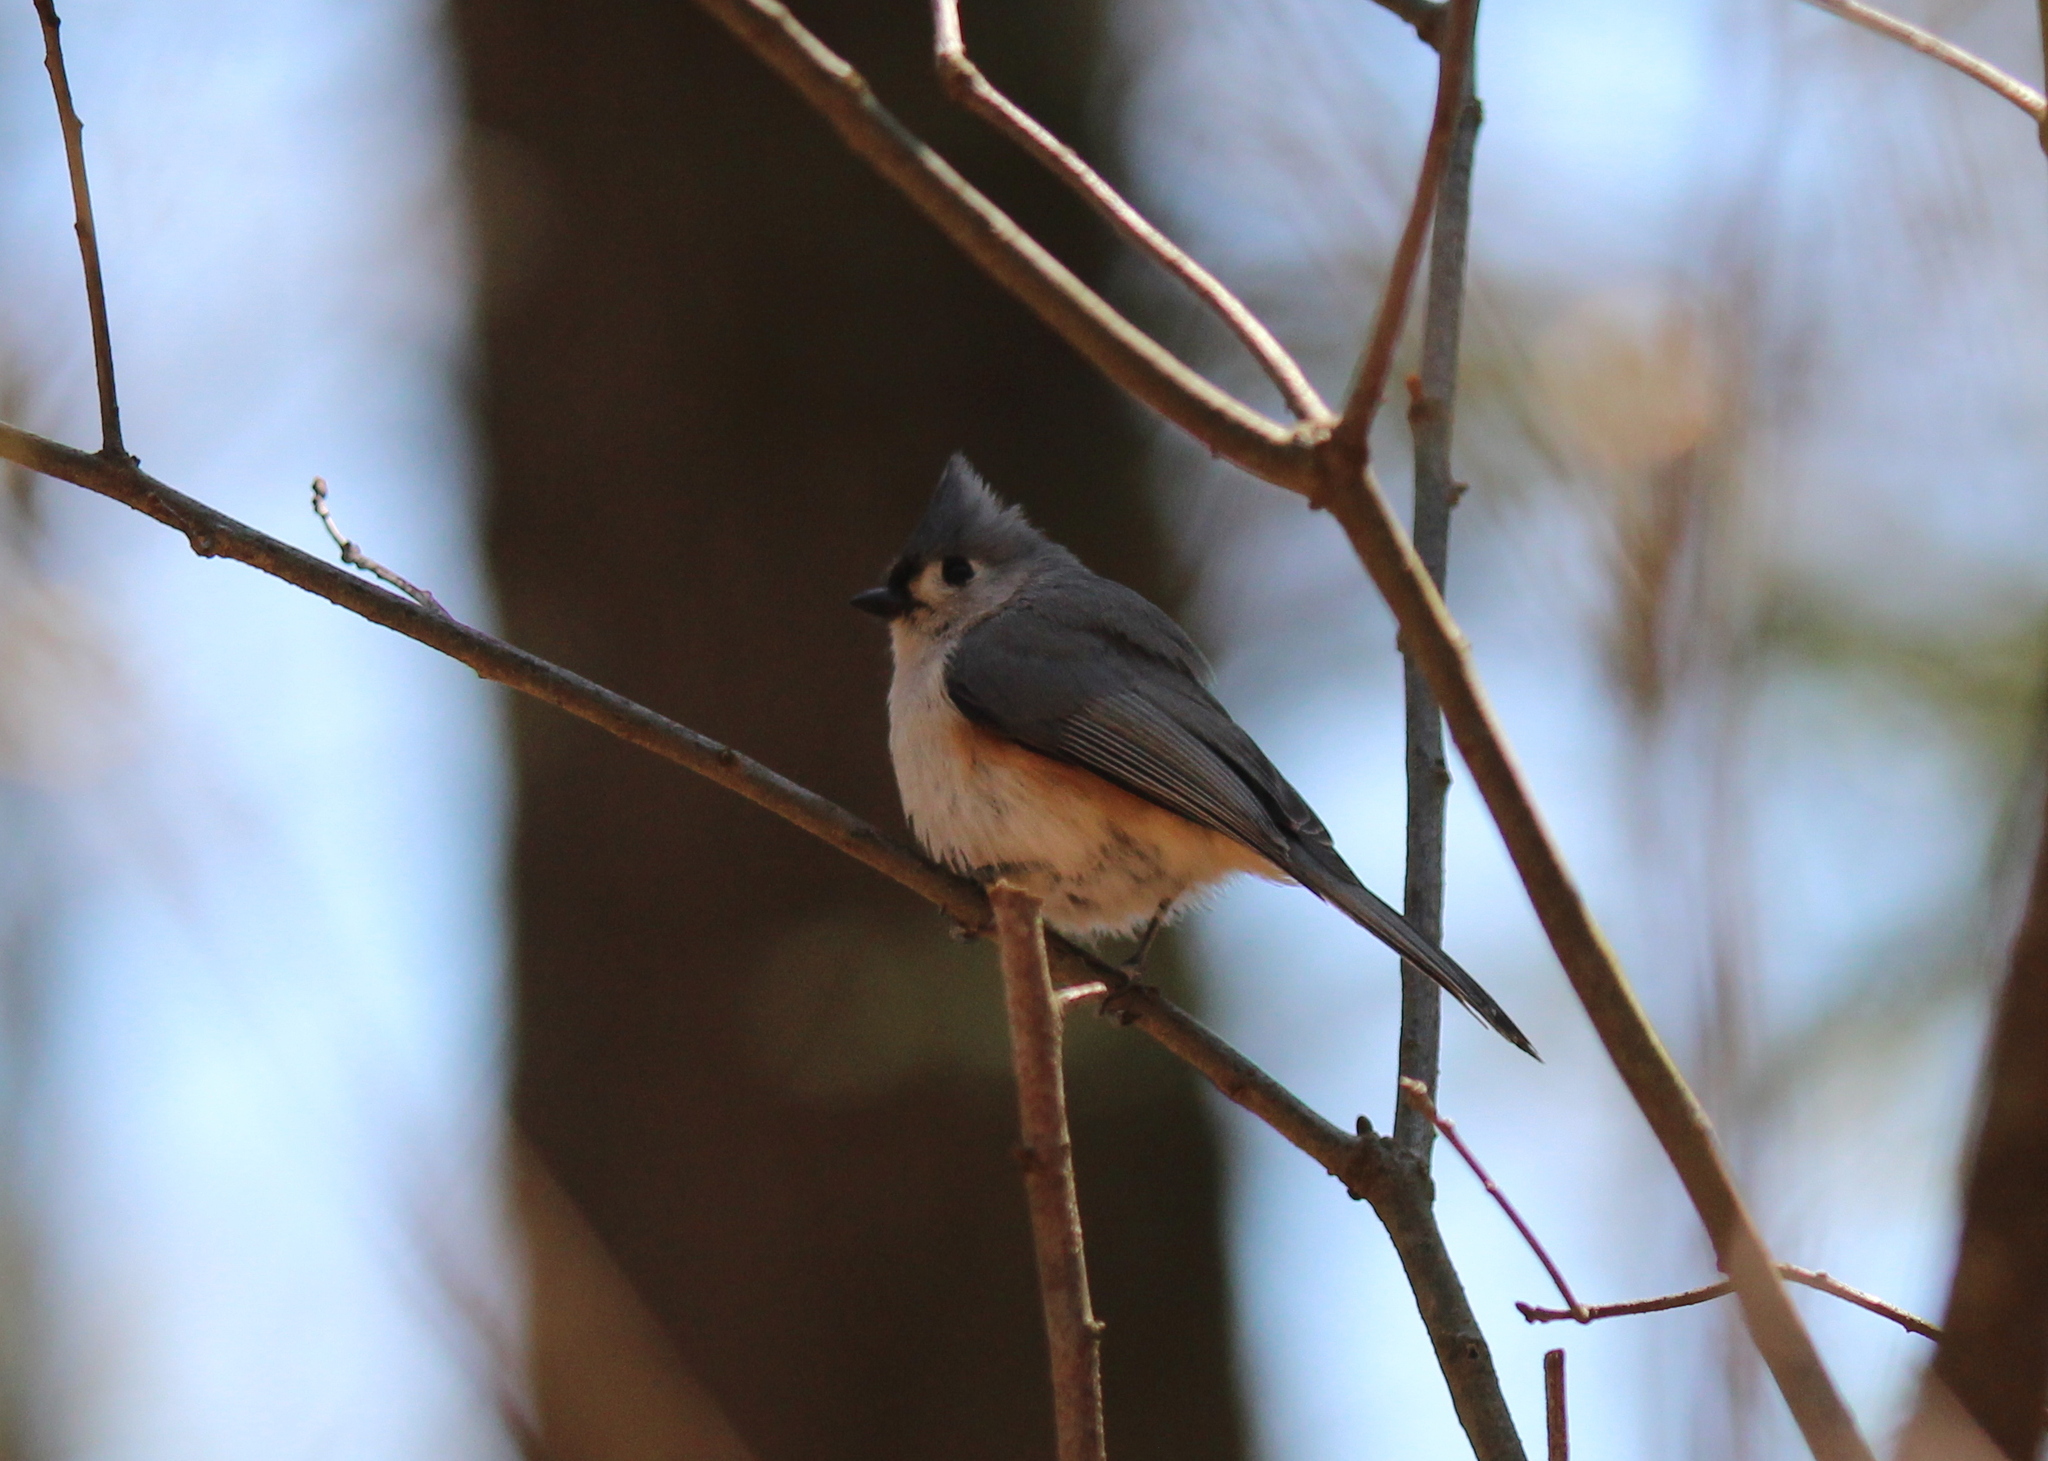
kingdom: Animalia
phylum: Chordata
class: Aves
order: Passeriformes
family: Paridae
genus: Baeolophus
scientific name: Baeolophus bicolor
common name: Tufted titmouse
